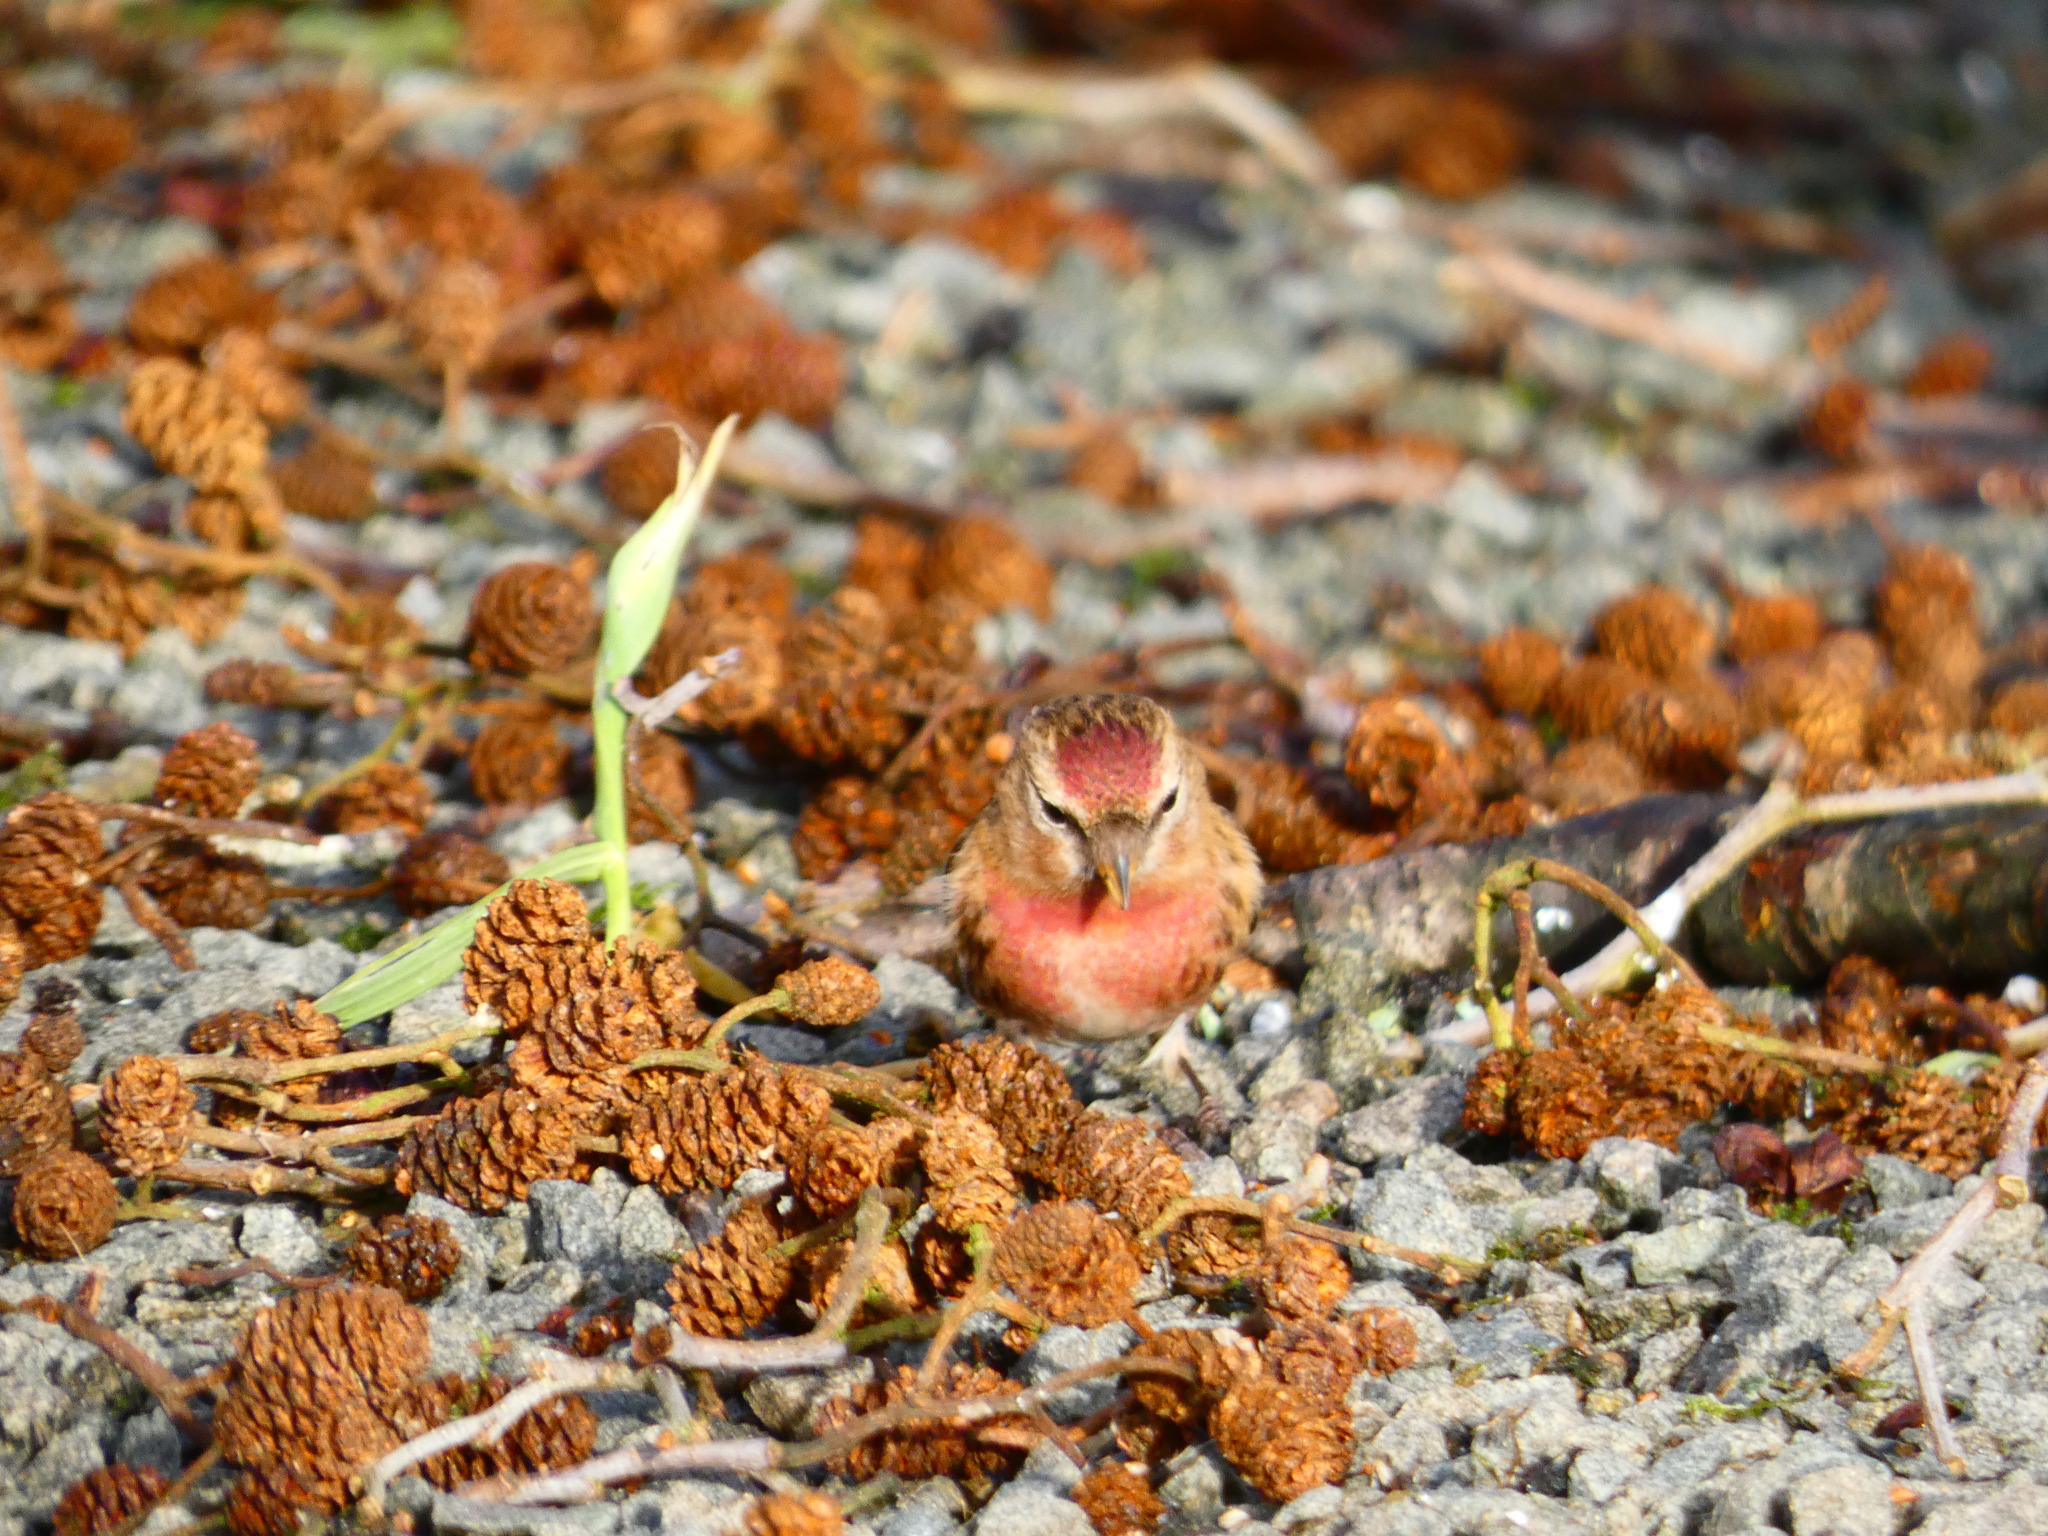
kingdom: Animalia
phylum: Chordata
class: Aves
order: Passeriformes
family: Fringillidae
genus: Acanthis
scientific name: Acanthis flammea
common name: Common redpoll
